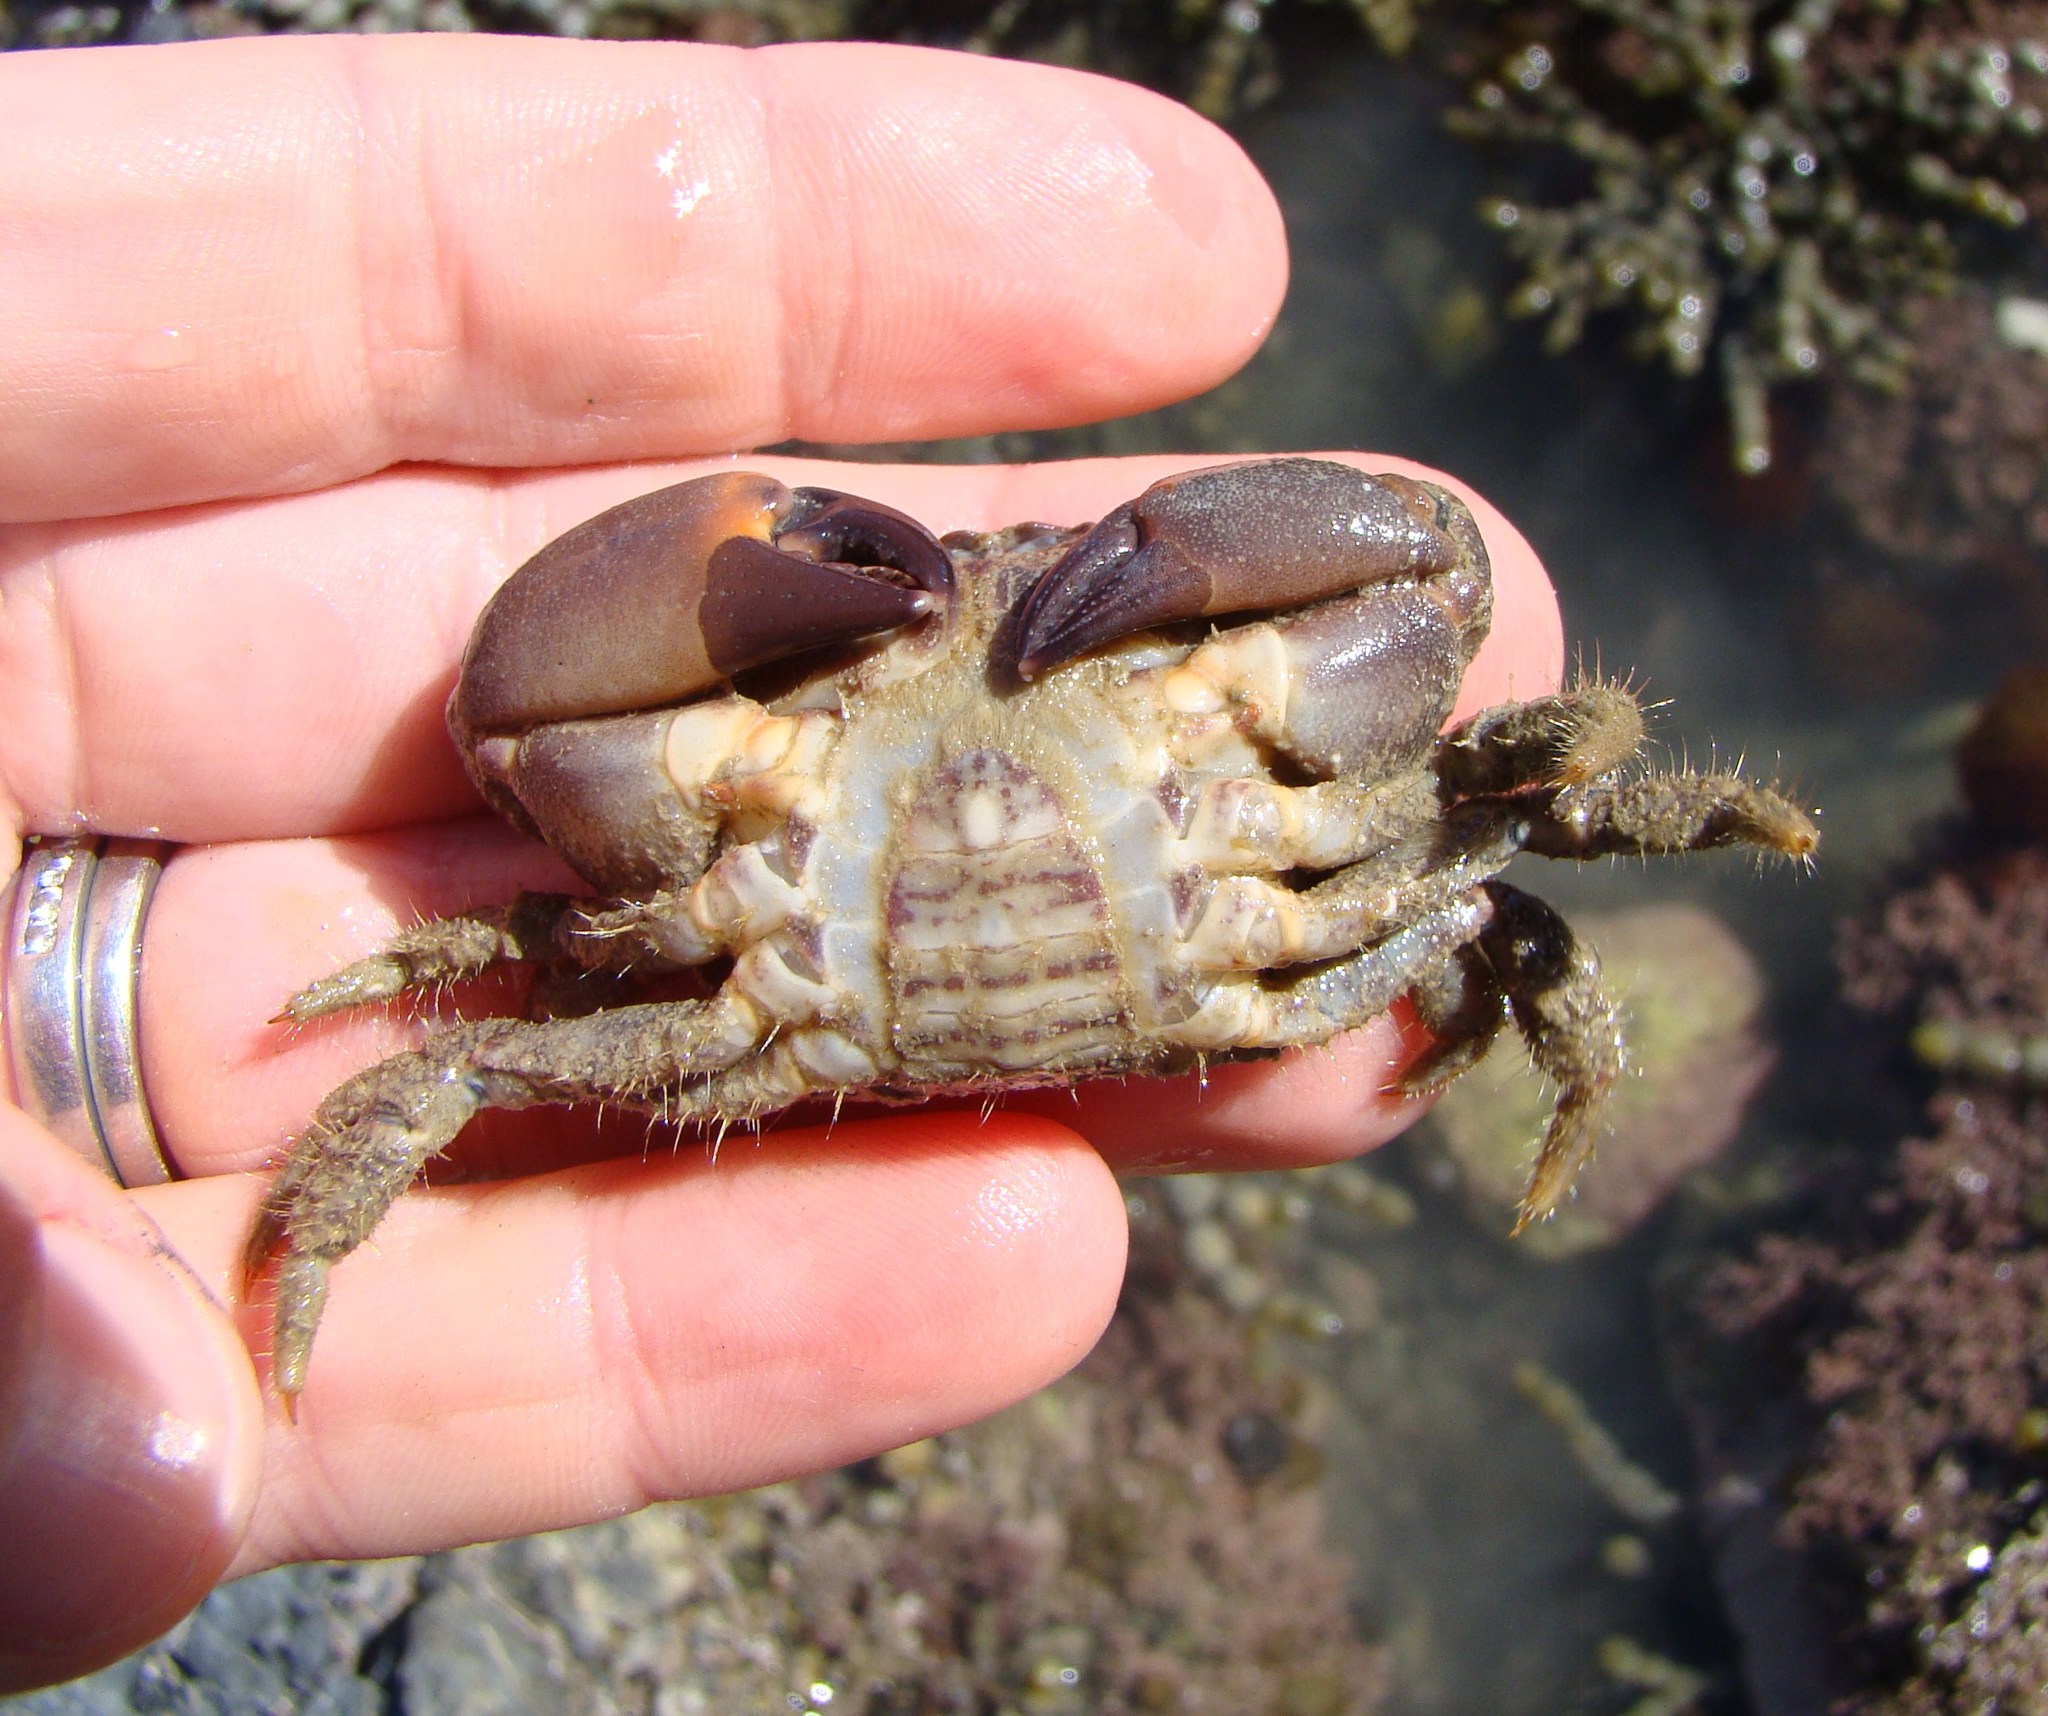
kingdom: Animalia
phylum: Arthropoda
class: Malacostraca
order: Decapoda
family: Oziidae
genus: Ozius
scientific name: Ozius deplanatus
